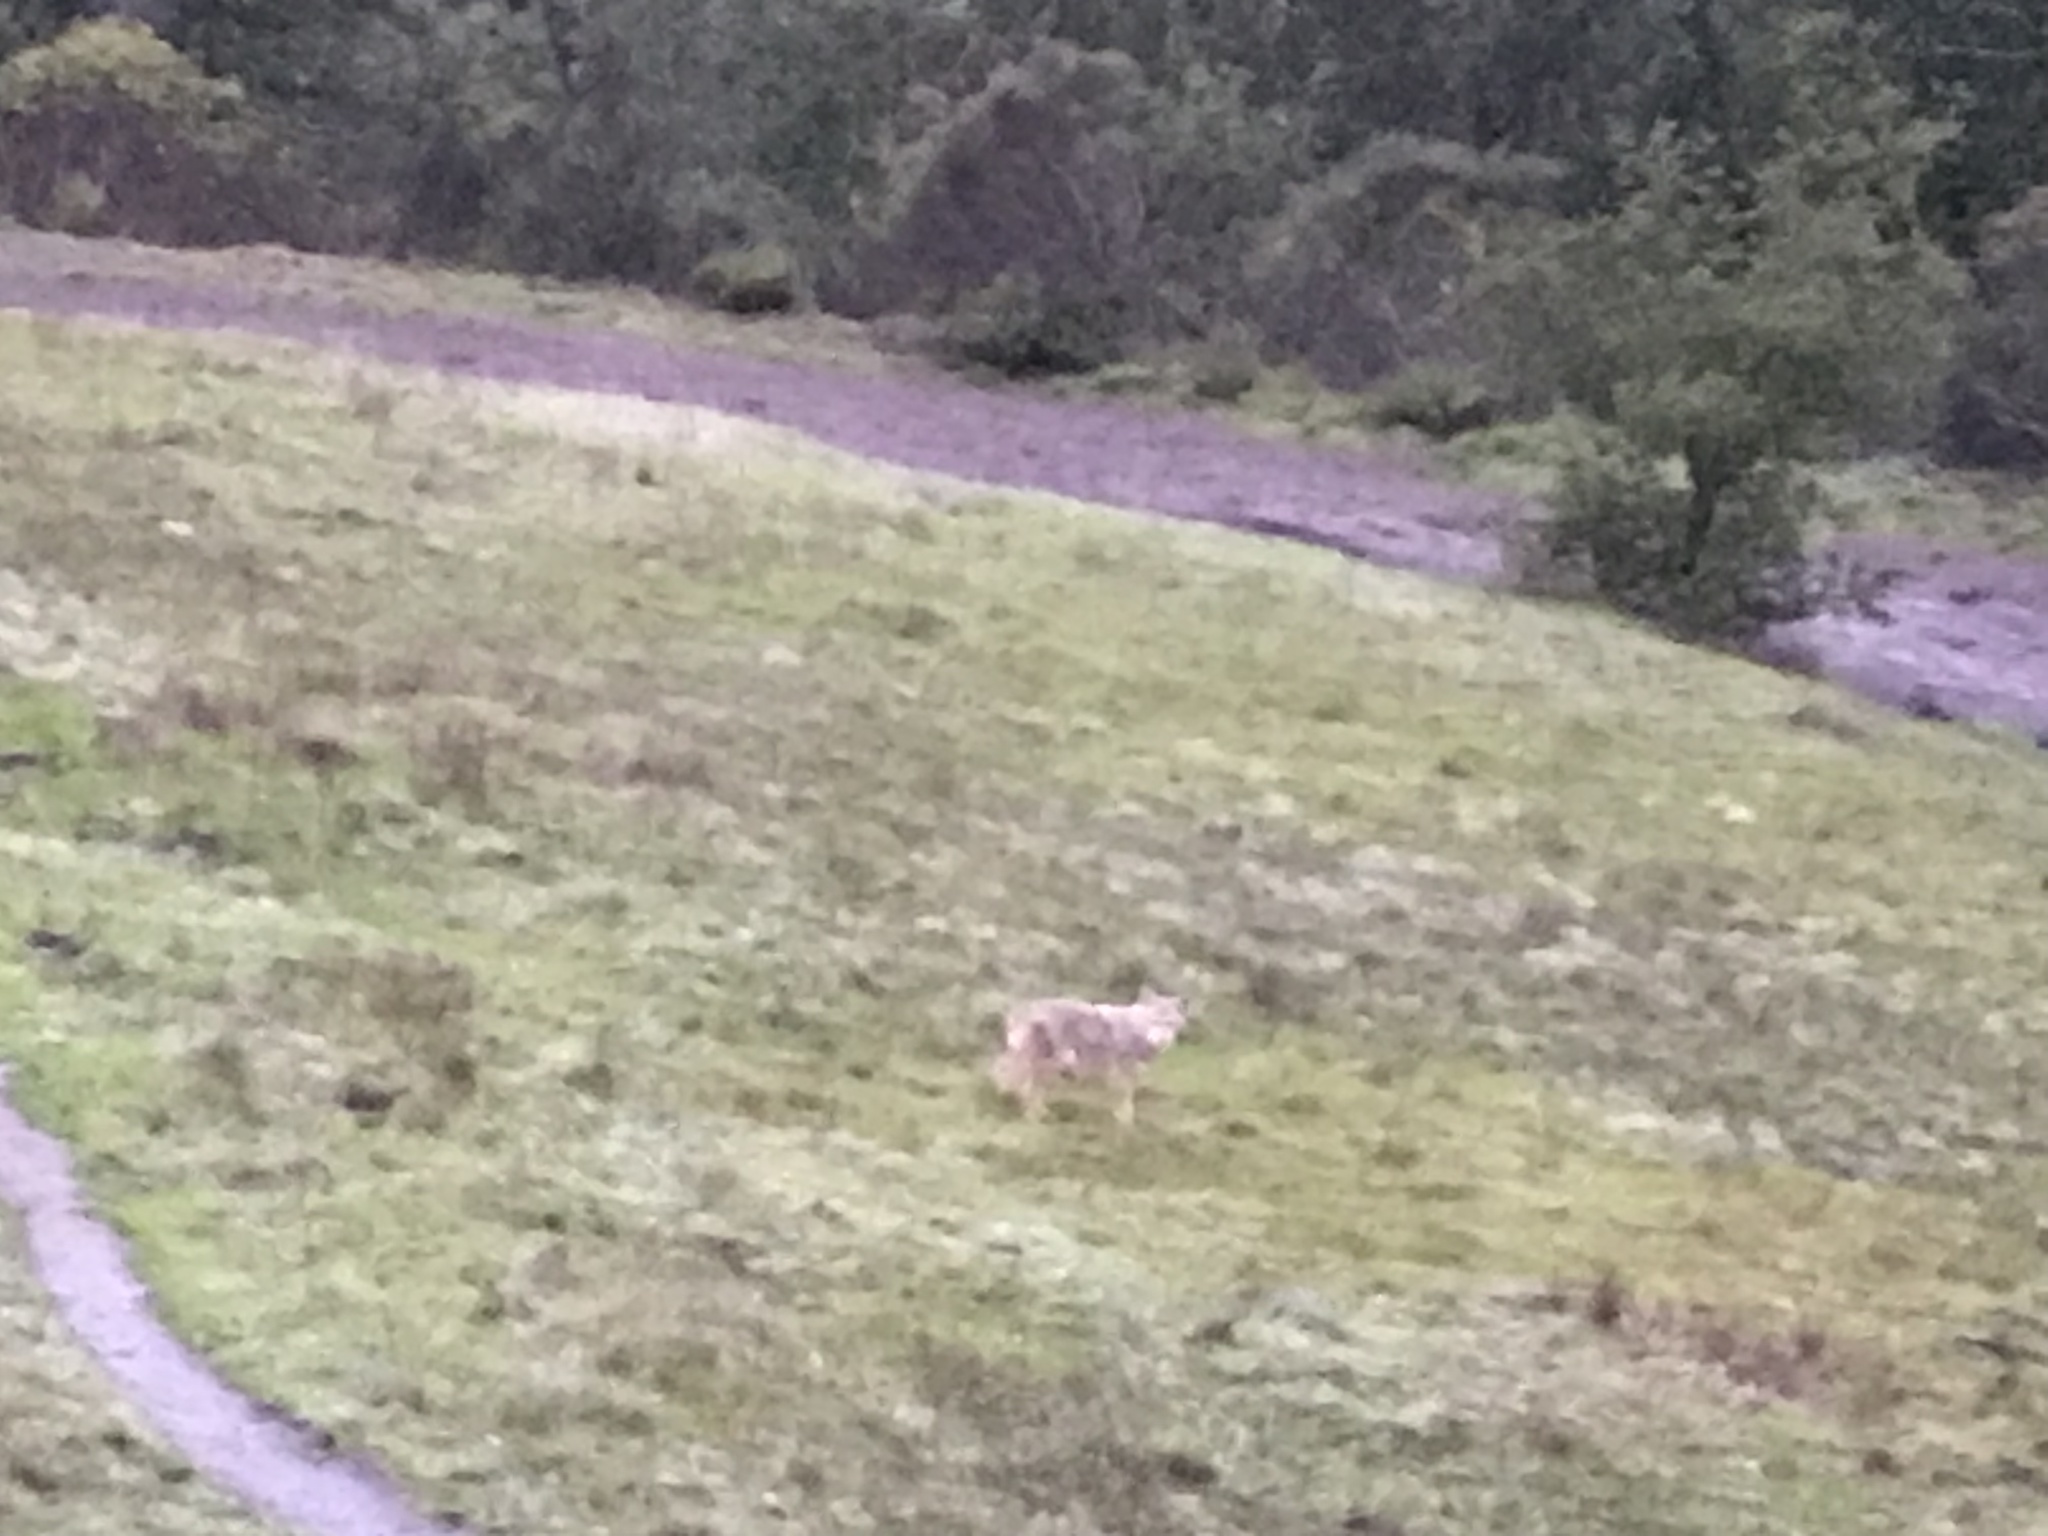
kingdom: Animalia
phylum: Chordata
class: Mammalia
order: Carnivora
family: Canidae
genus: Canis
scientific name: Canis latrans
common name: Coyote
